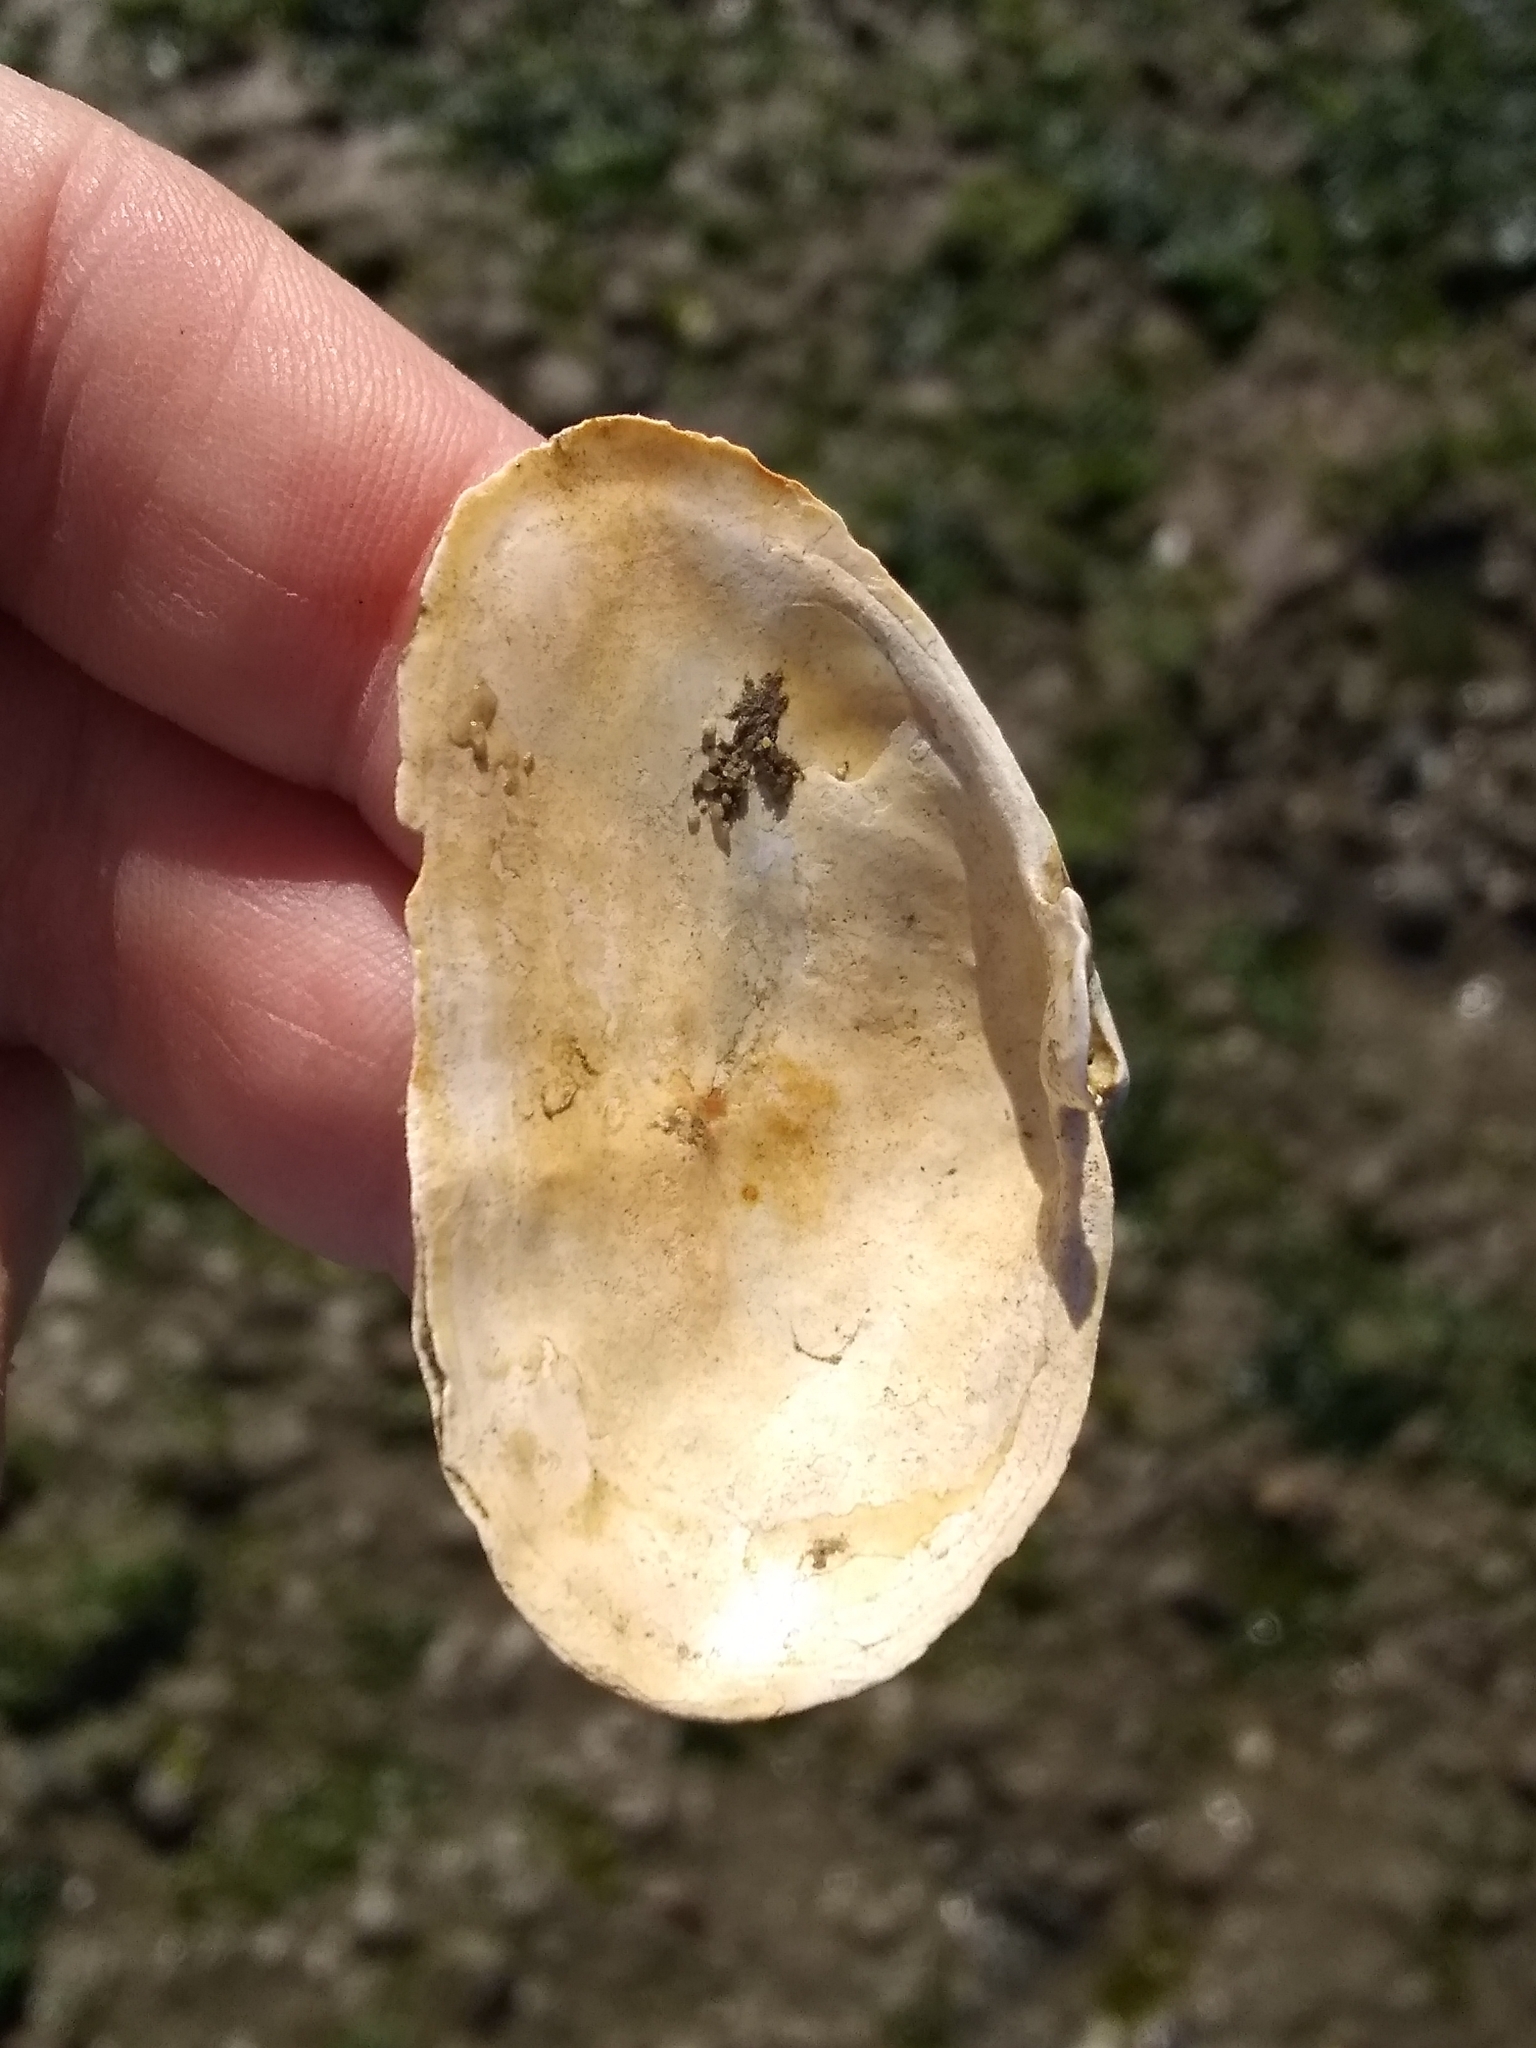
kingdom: Animalia
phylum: Mollusca
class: Bivalvia
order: Myida
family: Myidae
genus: Mya
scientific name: Mya arenaria
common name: Soft-shelled clam
